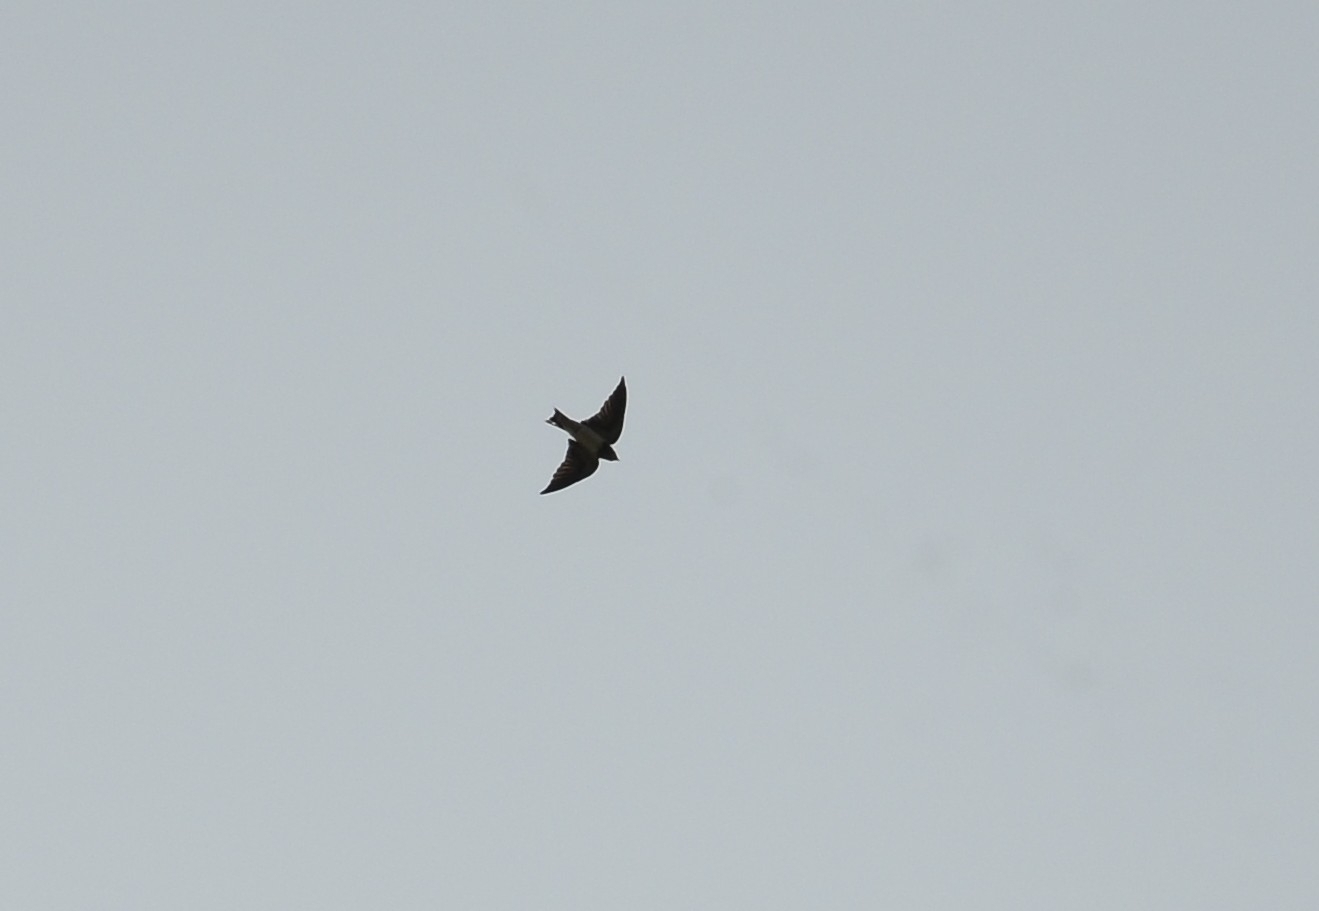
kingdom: Animalia
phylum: Chordata
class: Aves
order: Passeriformes
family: Hirundinidae
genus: Hirundo
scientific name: Hirundo rustica
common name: Barn swallow
